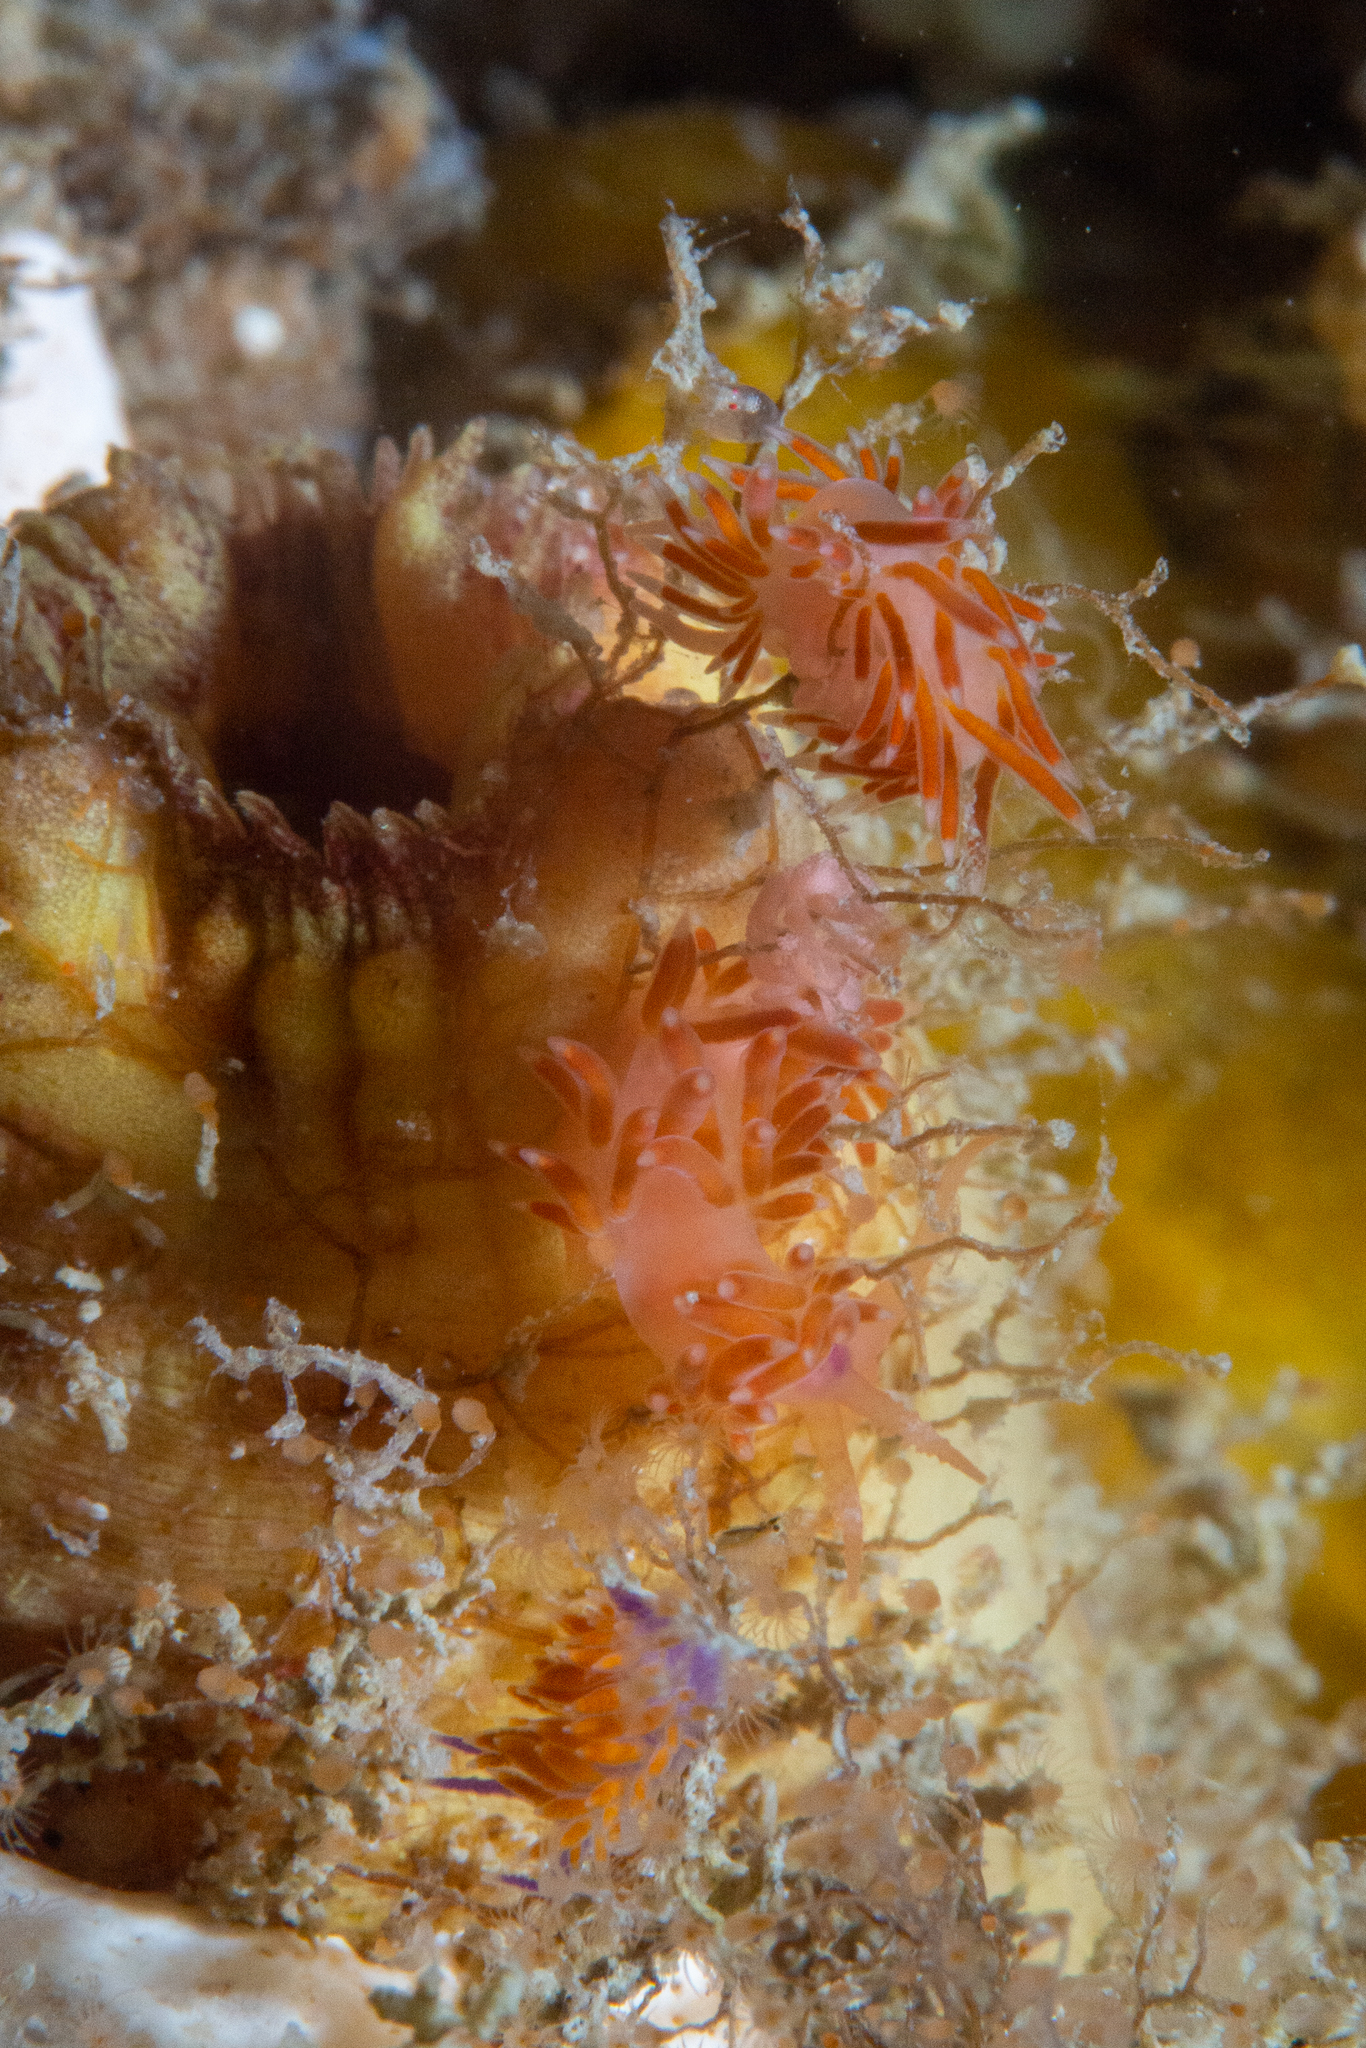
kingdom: Animalia
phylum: Mollusca
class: Gastropoda
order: Nudibranchia
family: Flabellinidae
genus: Coryphellina
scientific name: Coryphellina poenicia
